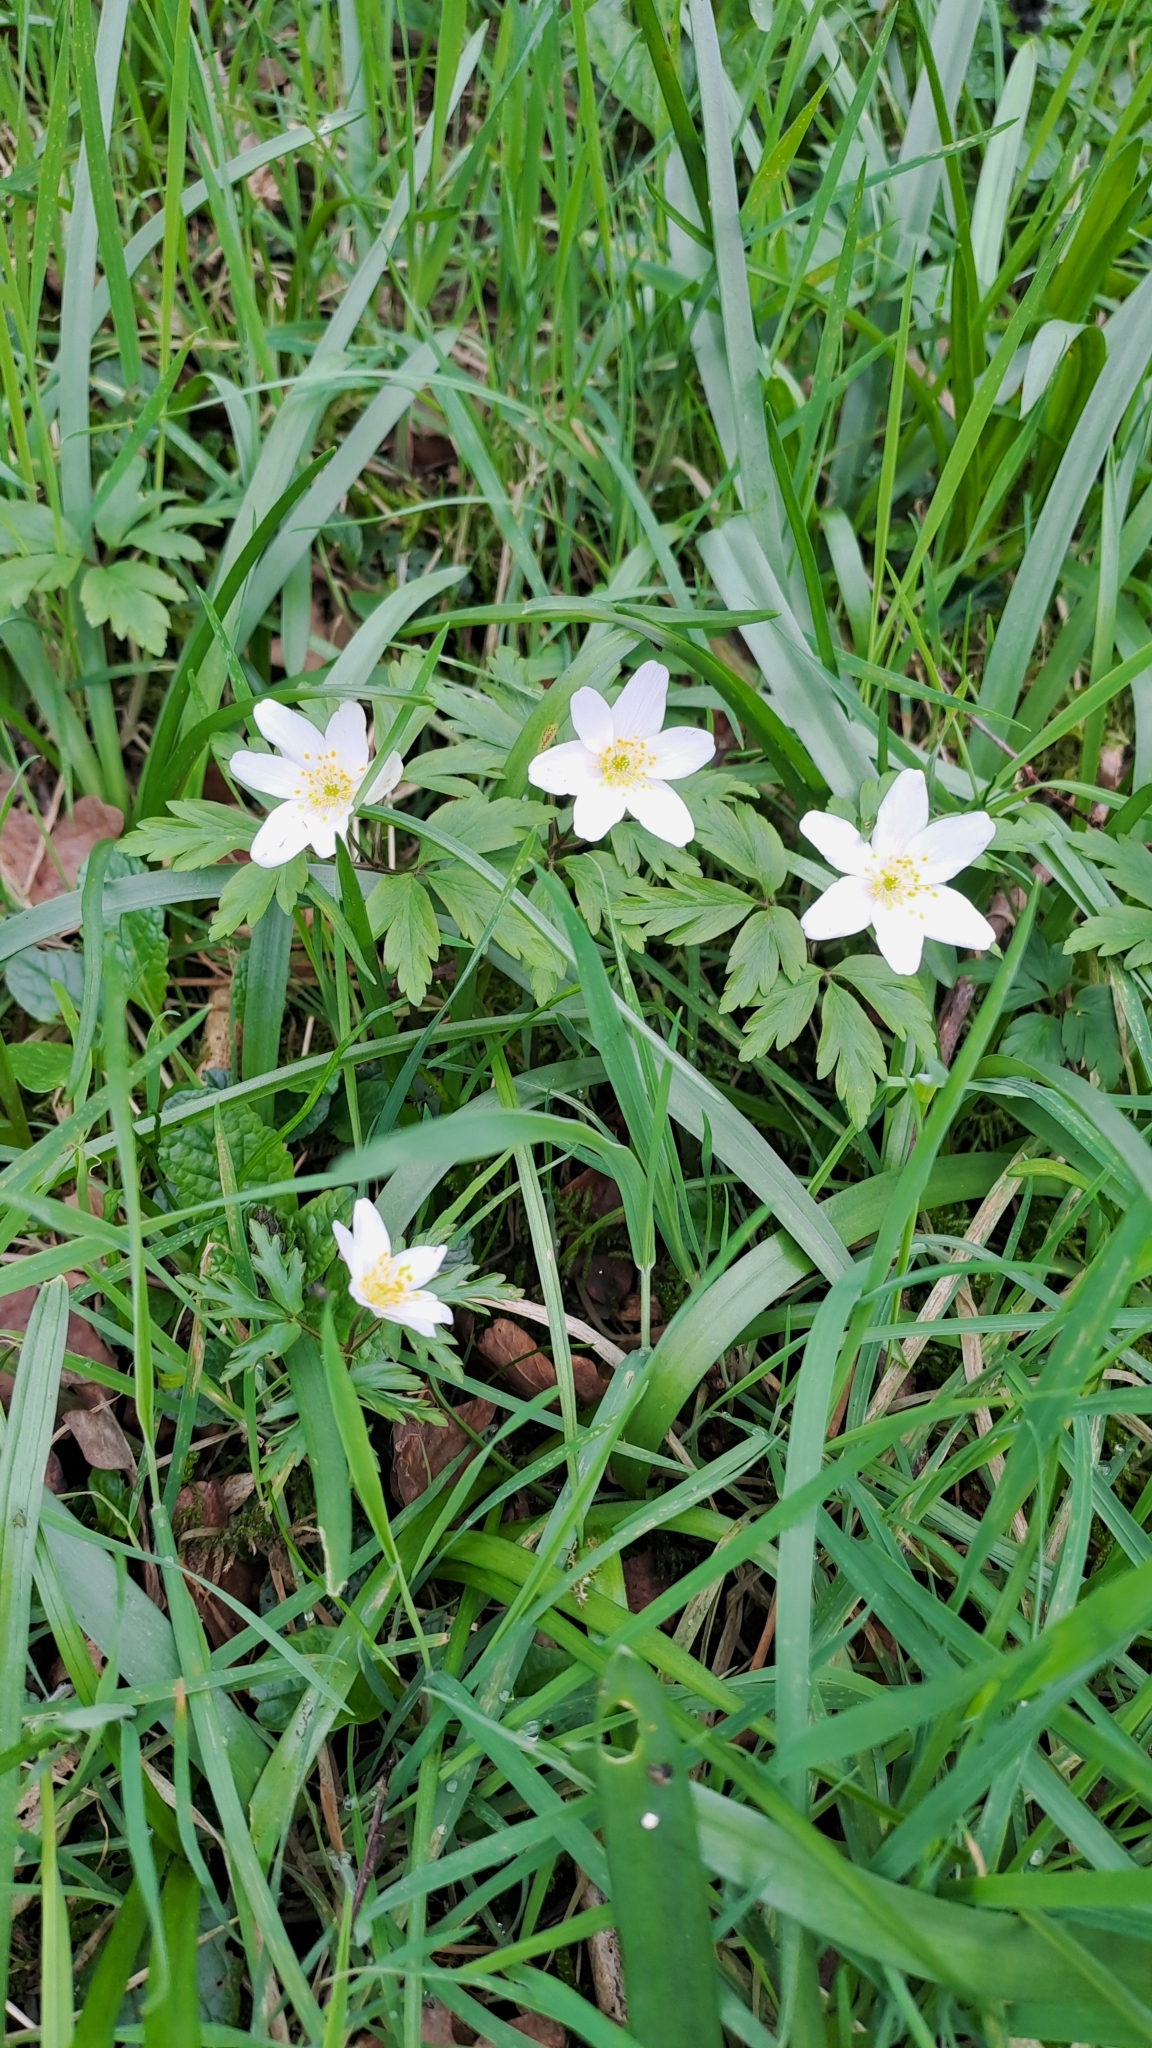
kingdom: Plantae
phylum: Tracheophyta
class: Magnoliopsida
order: Ranunculales
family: Ranunculaceae
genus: Anemone
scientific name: Anemone nemorosa
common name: Wood anemone
